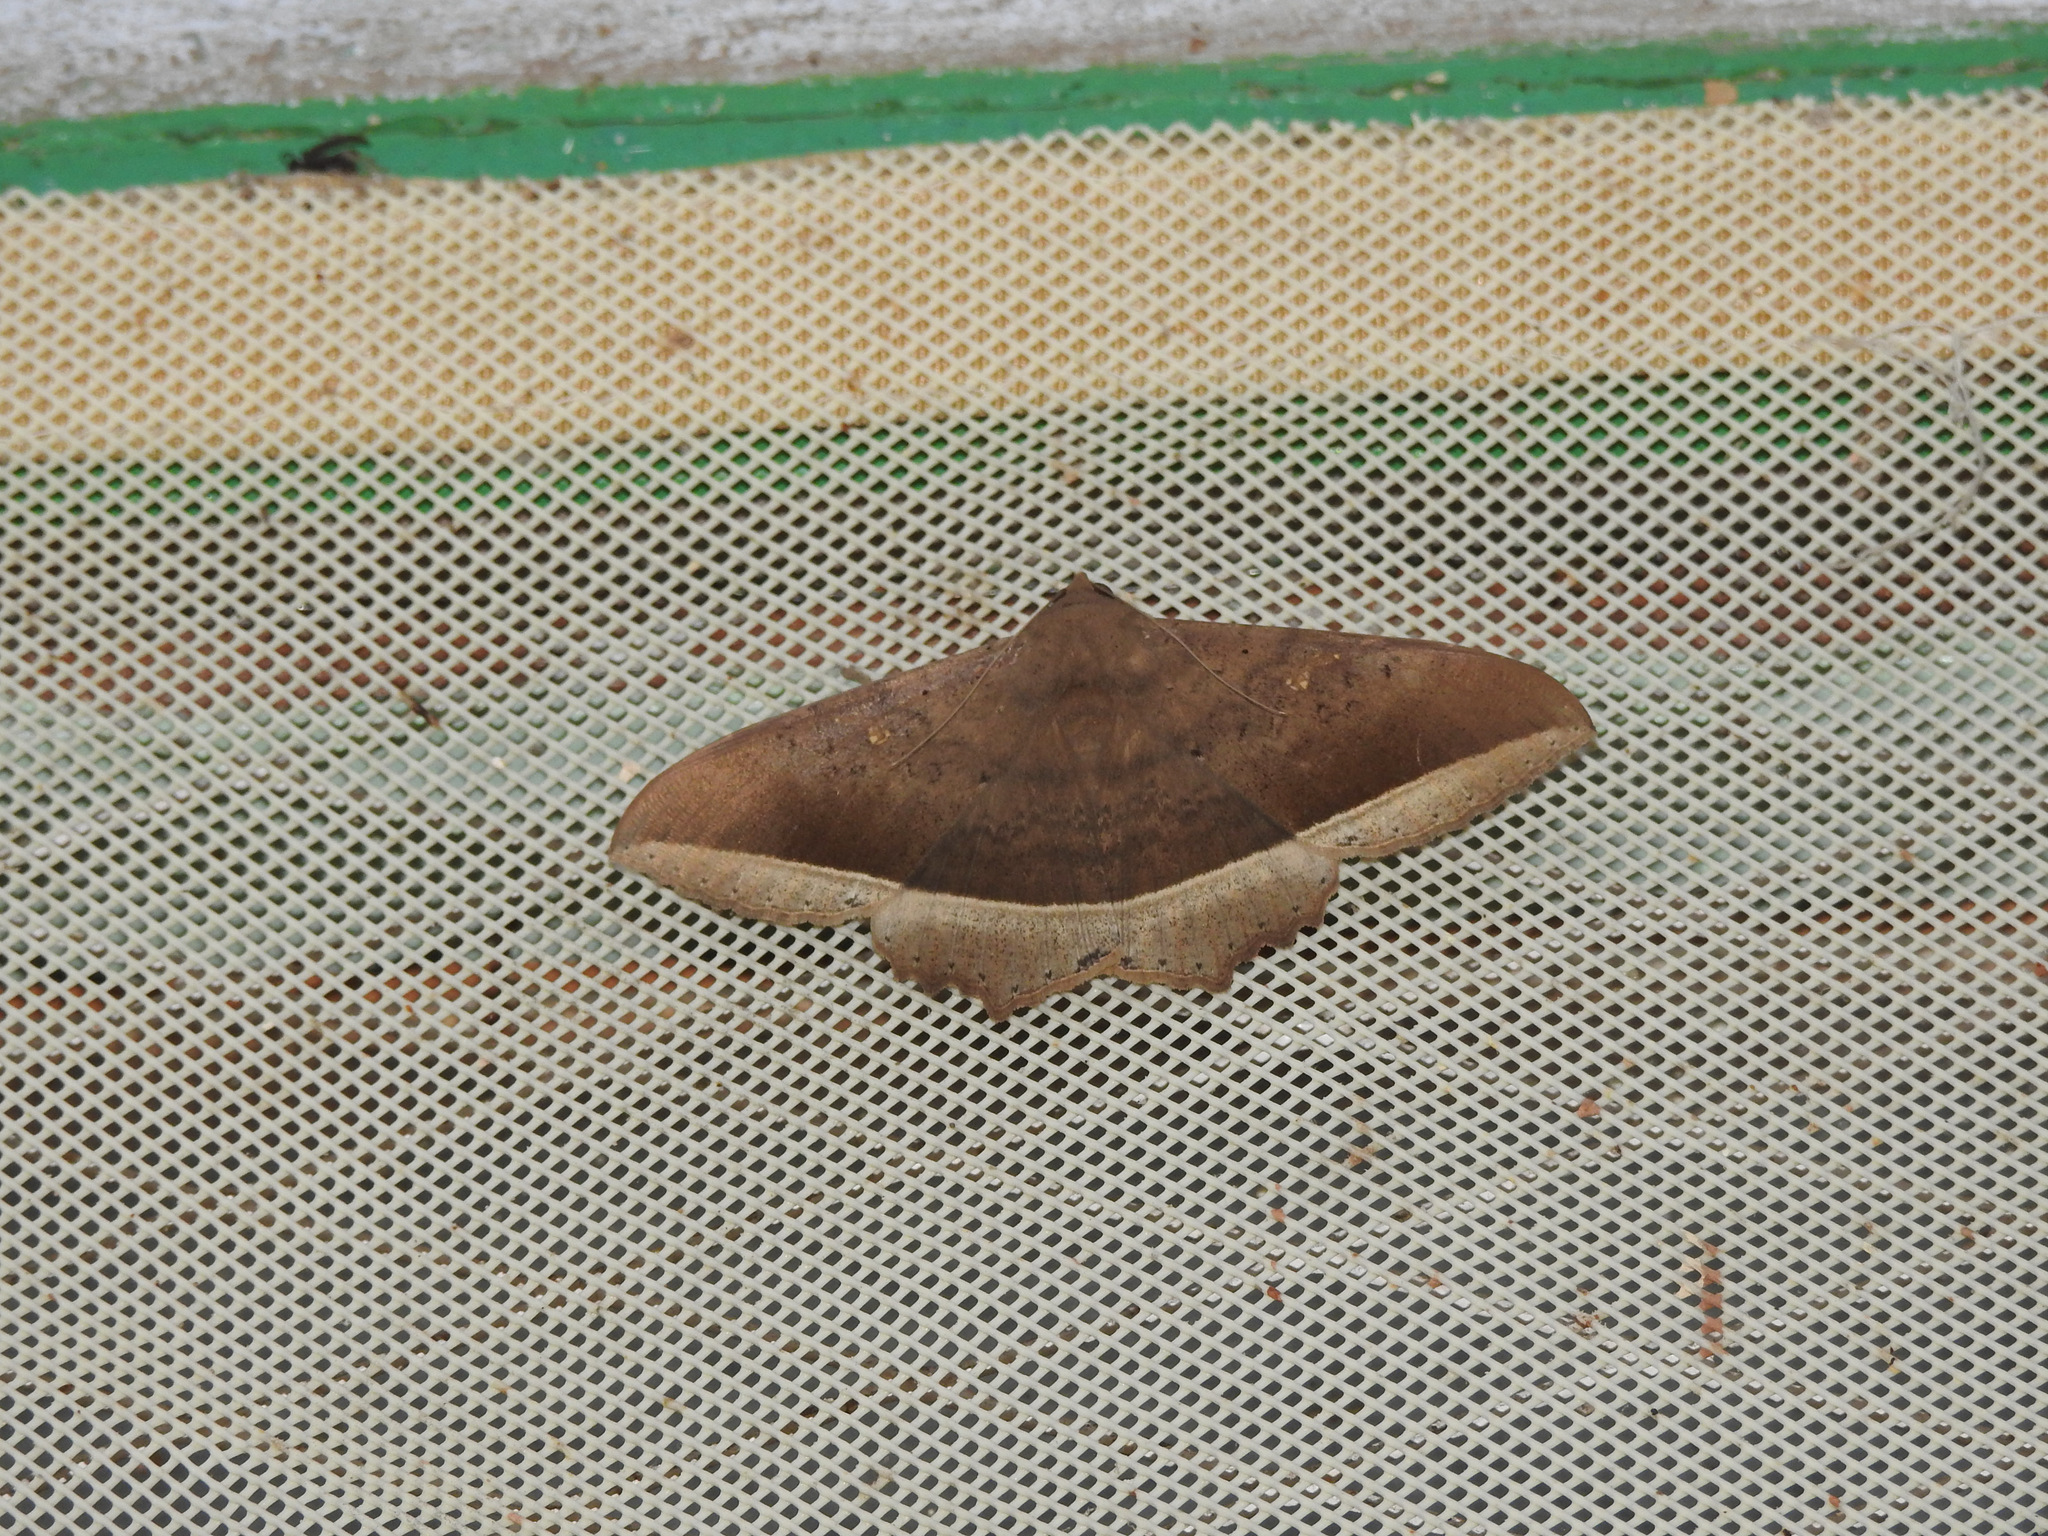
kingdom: Animalia
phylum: Arthropoda
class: Insecta
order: Lepidoptera
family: Erebidae
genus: Hulodes
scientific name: Hulodes caranea
